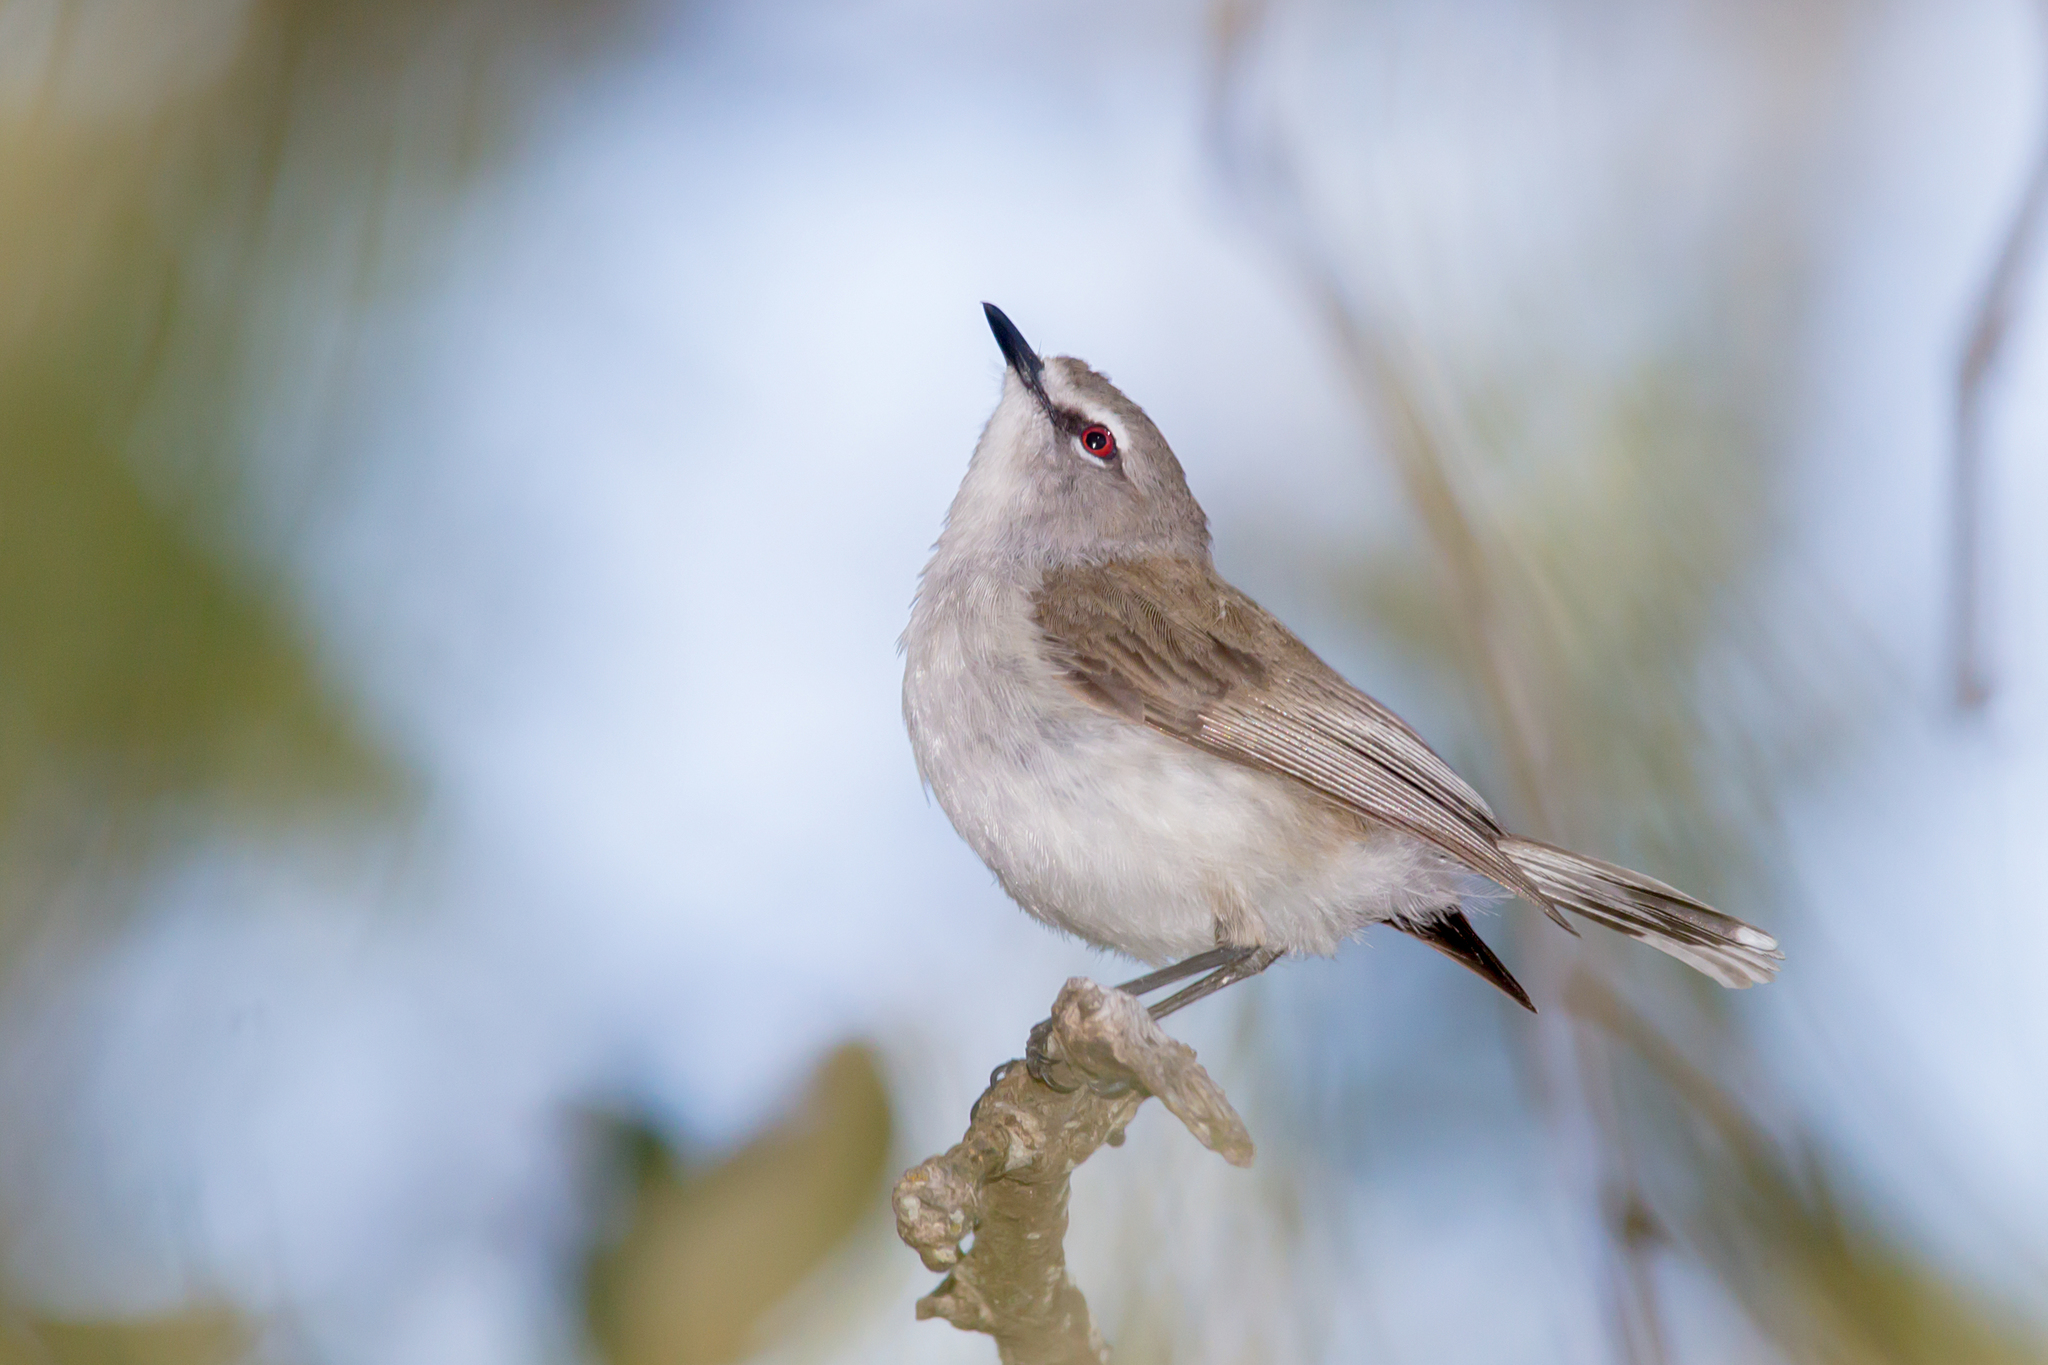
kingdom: Animalia
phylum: Chordata
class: Aves
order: Passeriformes
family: Acanthizidae
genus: Gerygone
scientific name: Gerygone levigaster
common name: Mangrove gerygone
